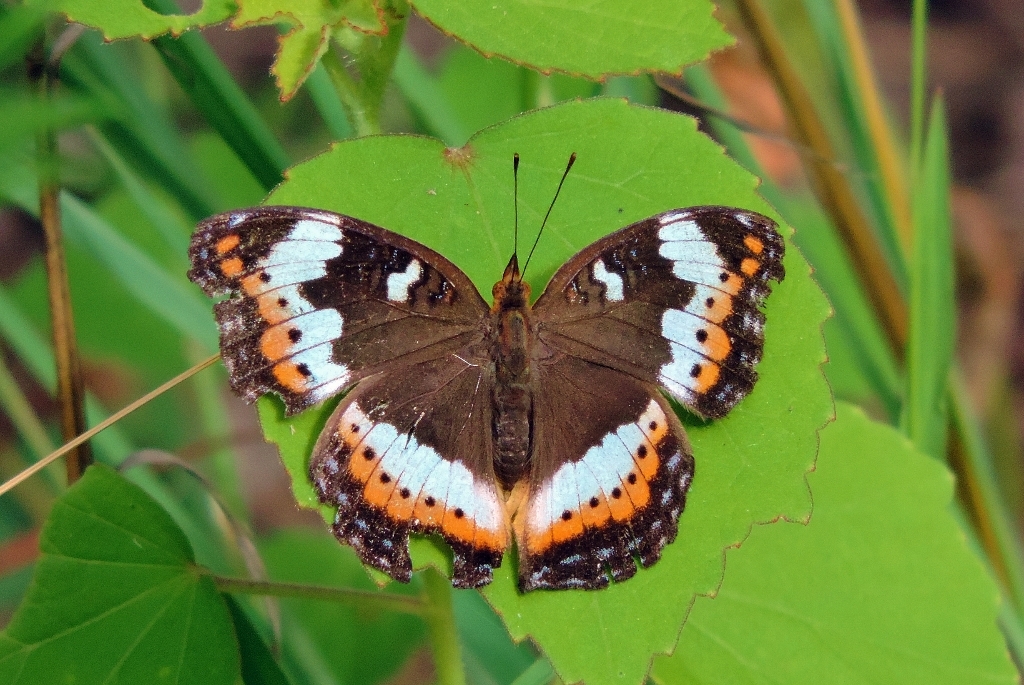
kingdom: Animalia
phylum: Arthropoda
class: Insecta
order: Lepidoptera
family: Nymphalidae
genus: Precis
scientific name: Precis actia
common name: Air commodore
